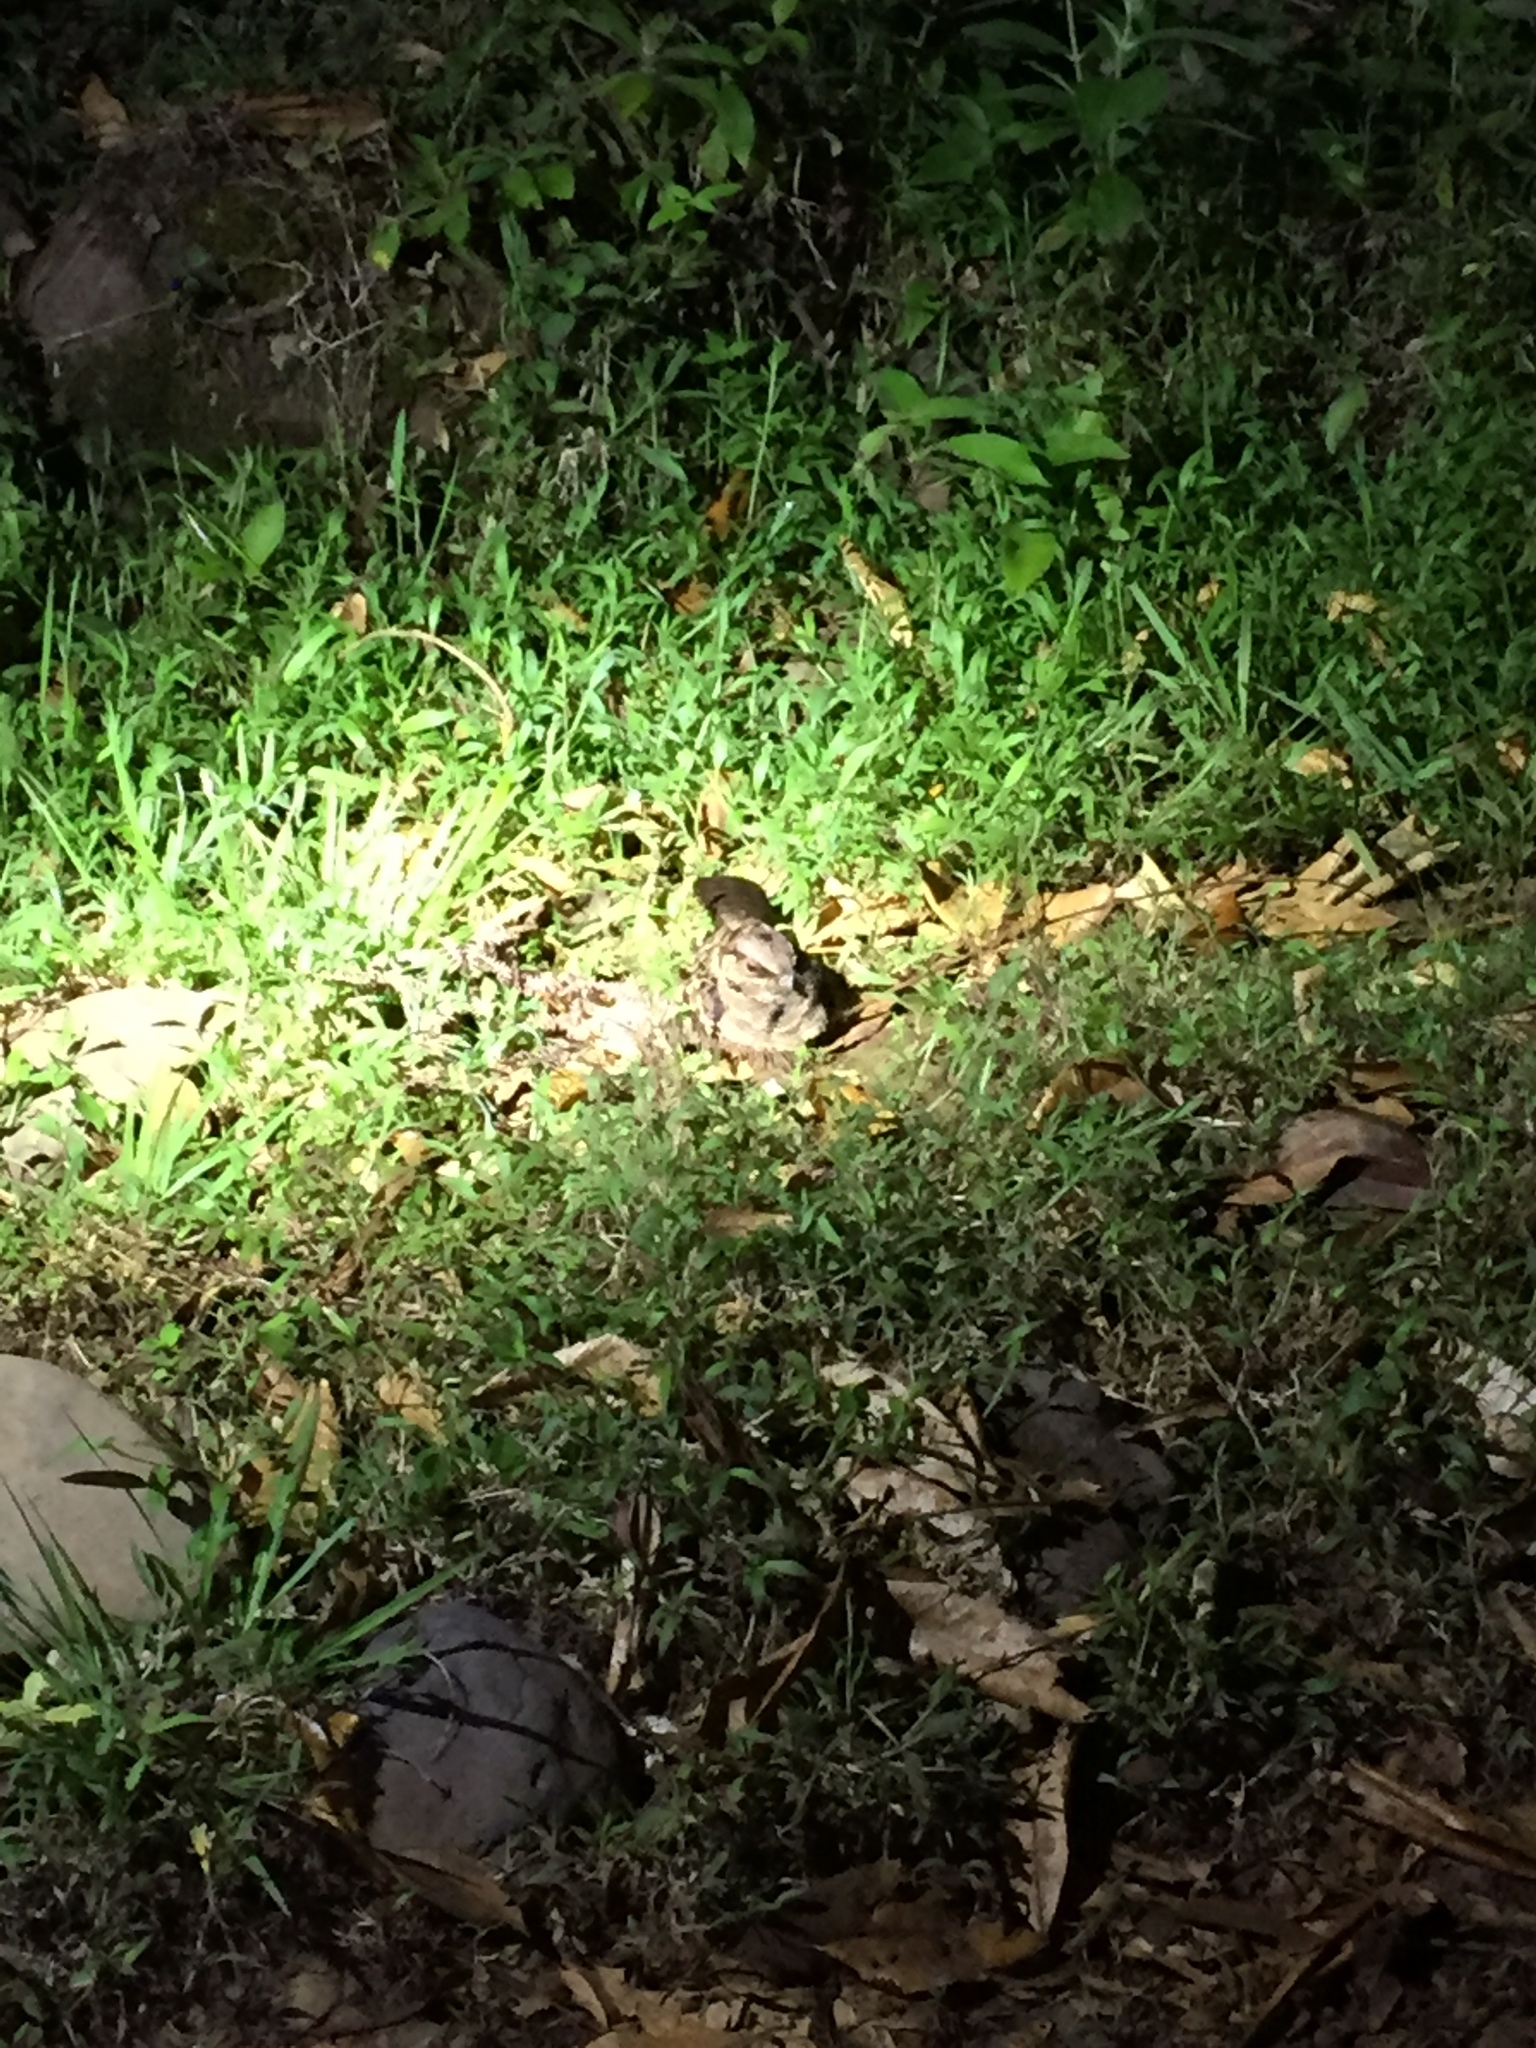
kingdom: Animalia
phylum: Chordata
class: Aves
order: Caprimulgiformes
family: Caprimulgidae
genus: Nyctidromus
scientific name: Nyctidromus albicollis
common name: Pauraque
